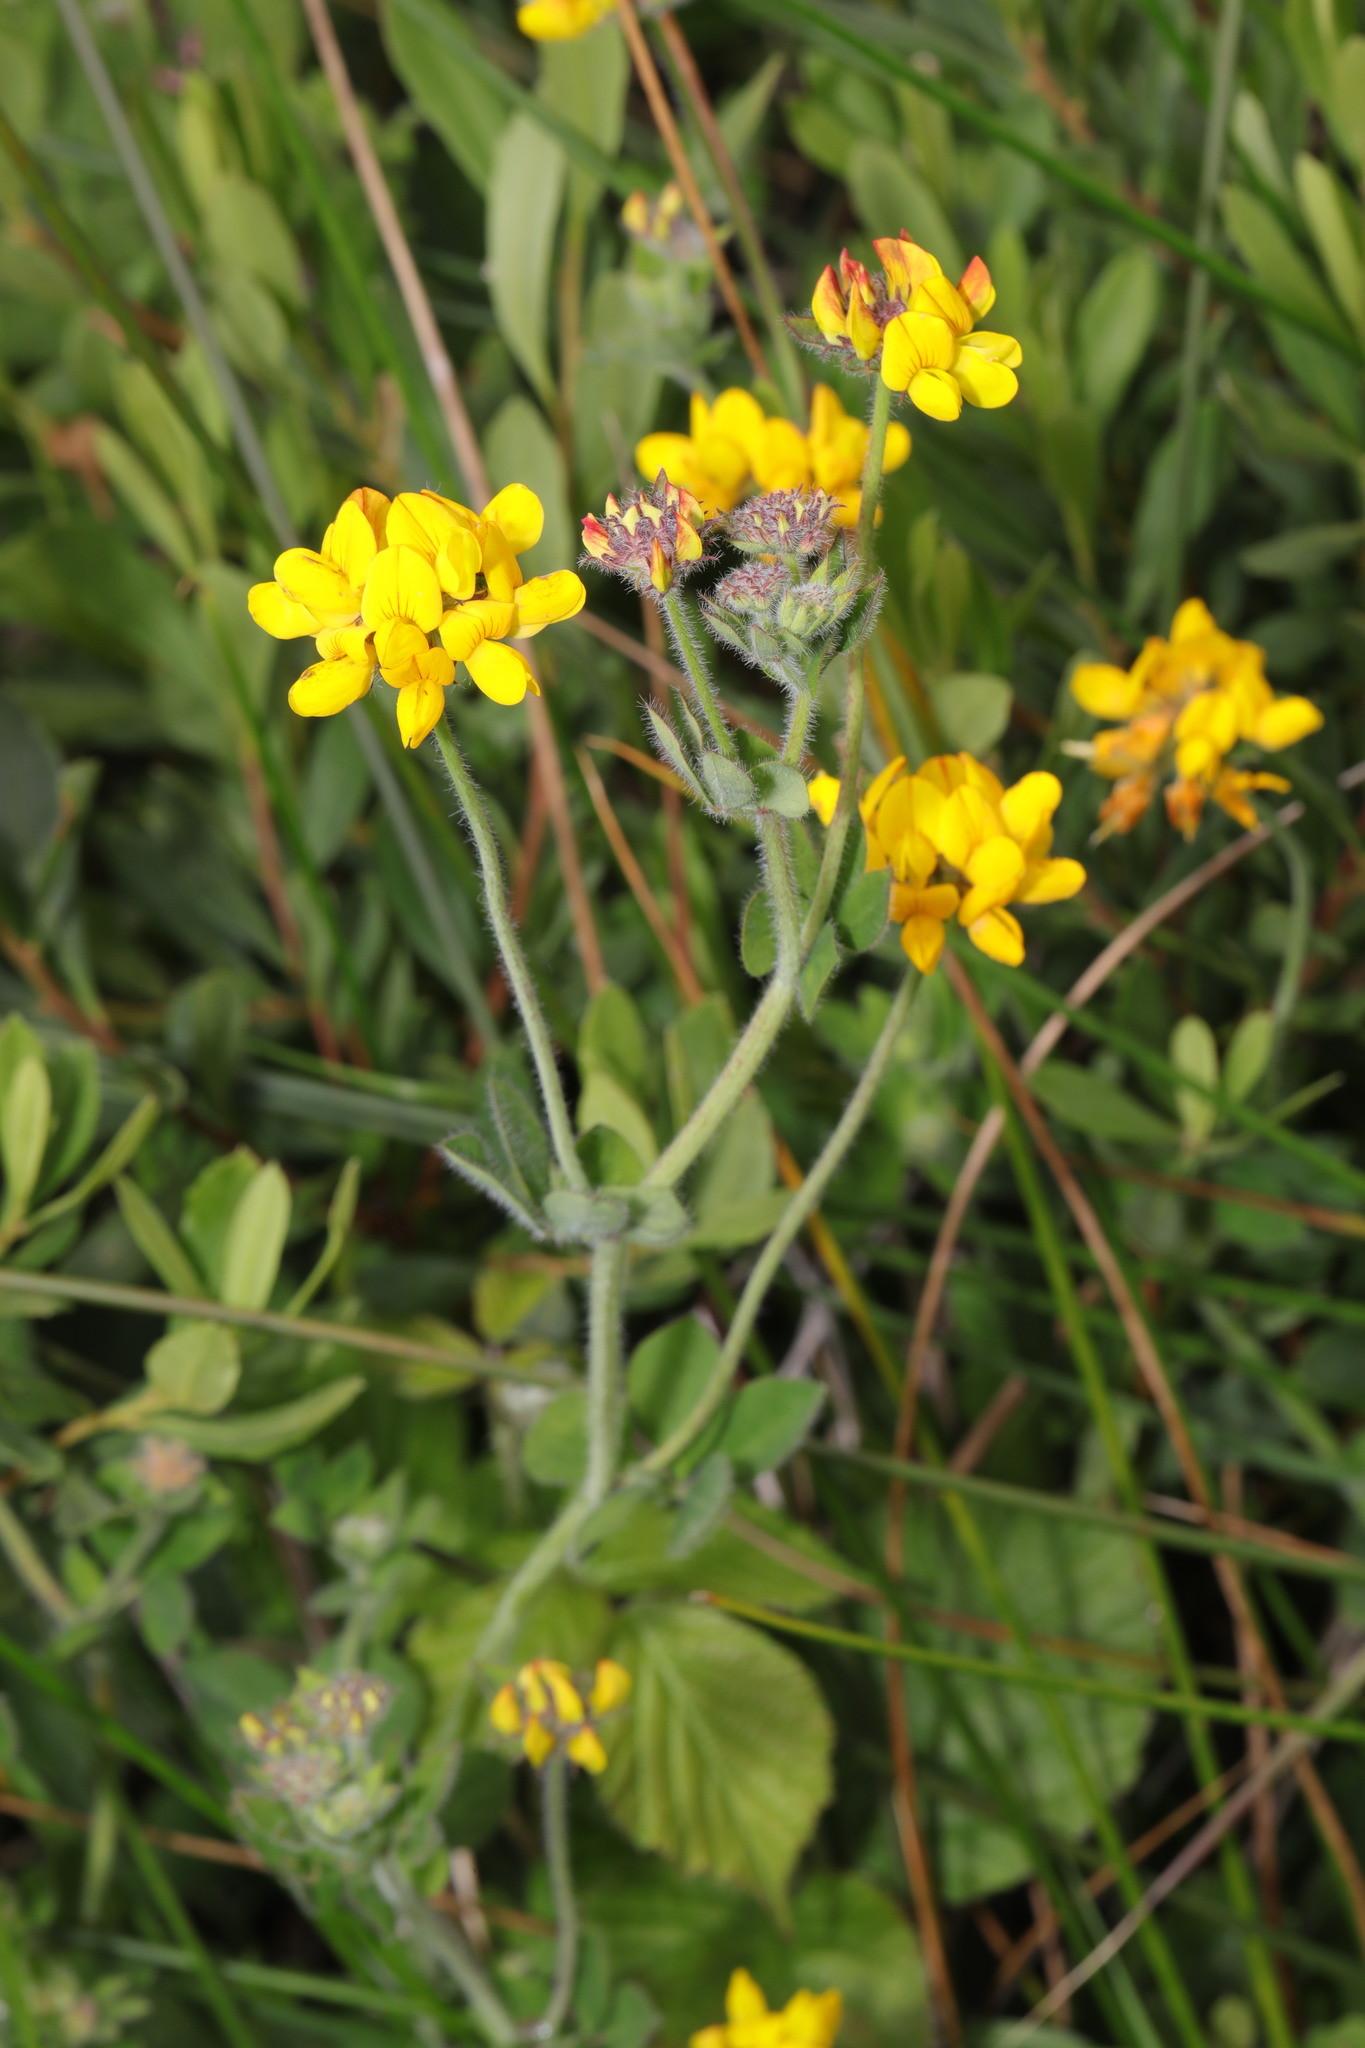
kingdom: Plantae
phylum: Tracheophyta
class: Magnoliopsida
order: Fabales
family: Fabaceae
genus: Lotus
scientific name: Lotus pedunculatus
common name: Greater birdsfoot-trefoil
